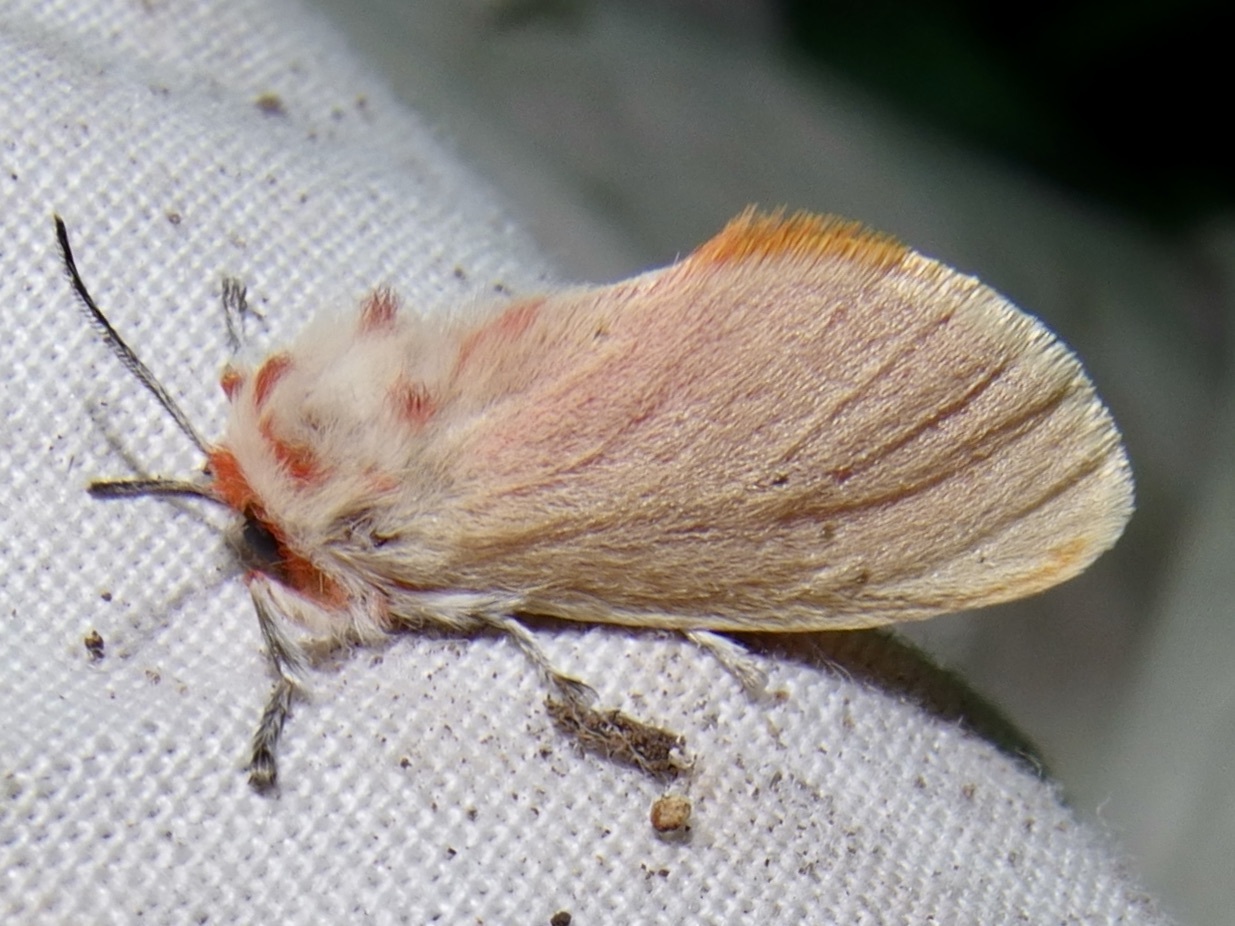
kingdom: Animalia
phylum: Arthropoda
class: Insecta
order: Lepidoptera
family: Megalopygidae
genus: Trosia
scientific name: Trosia obsolescens
